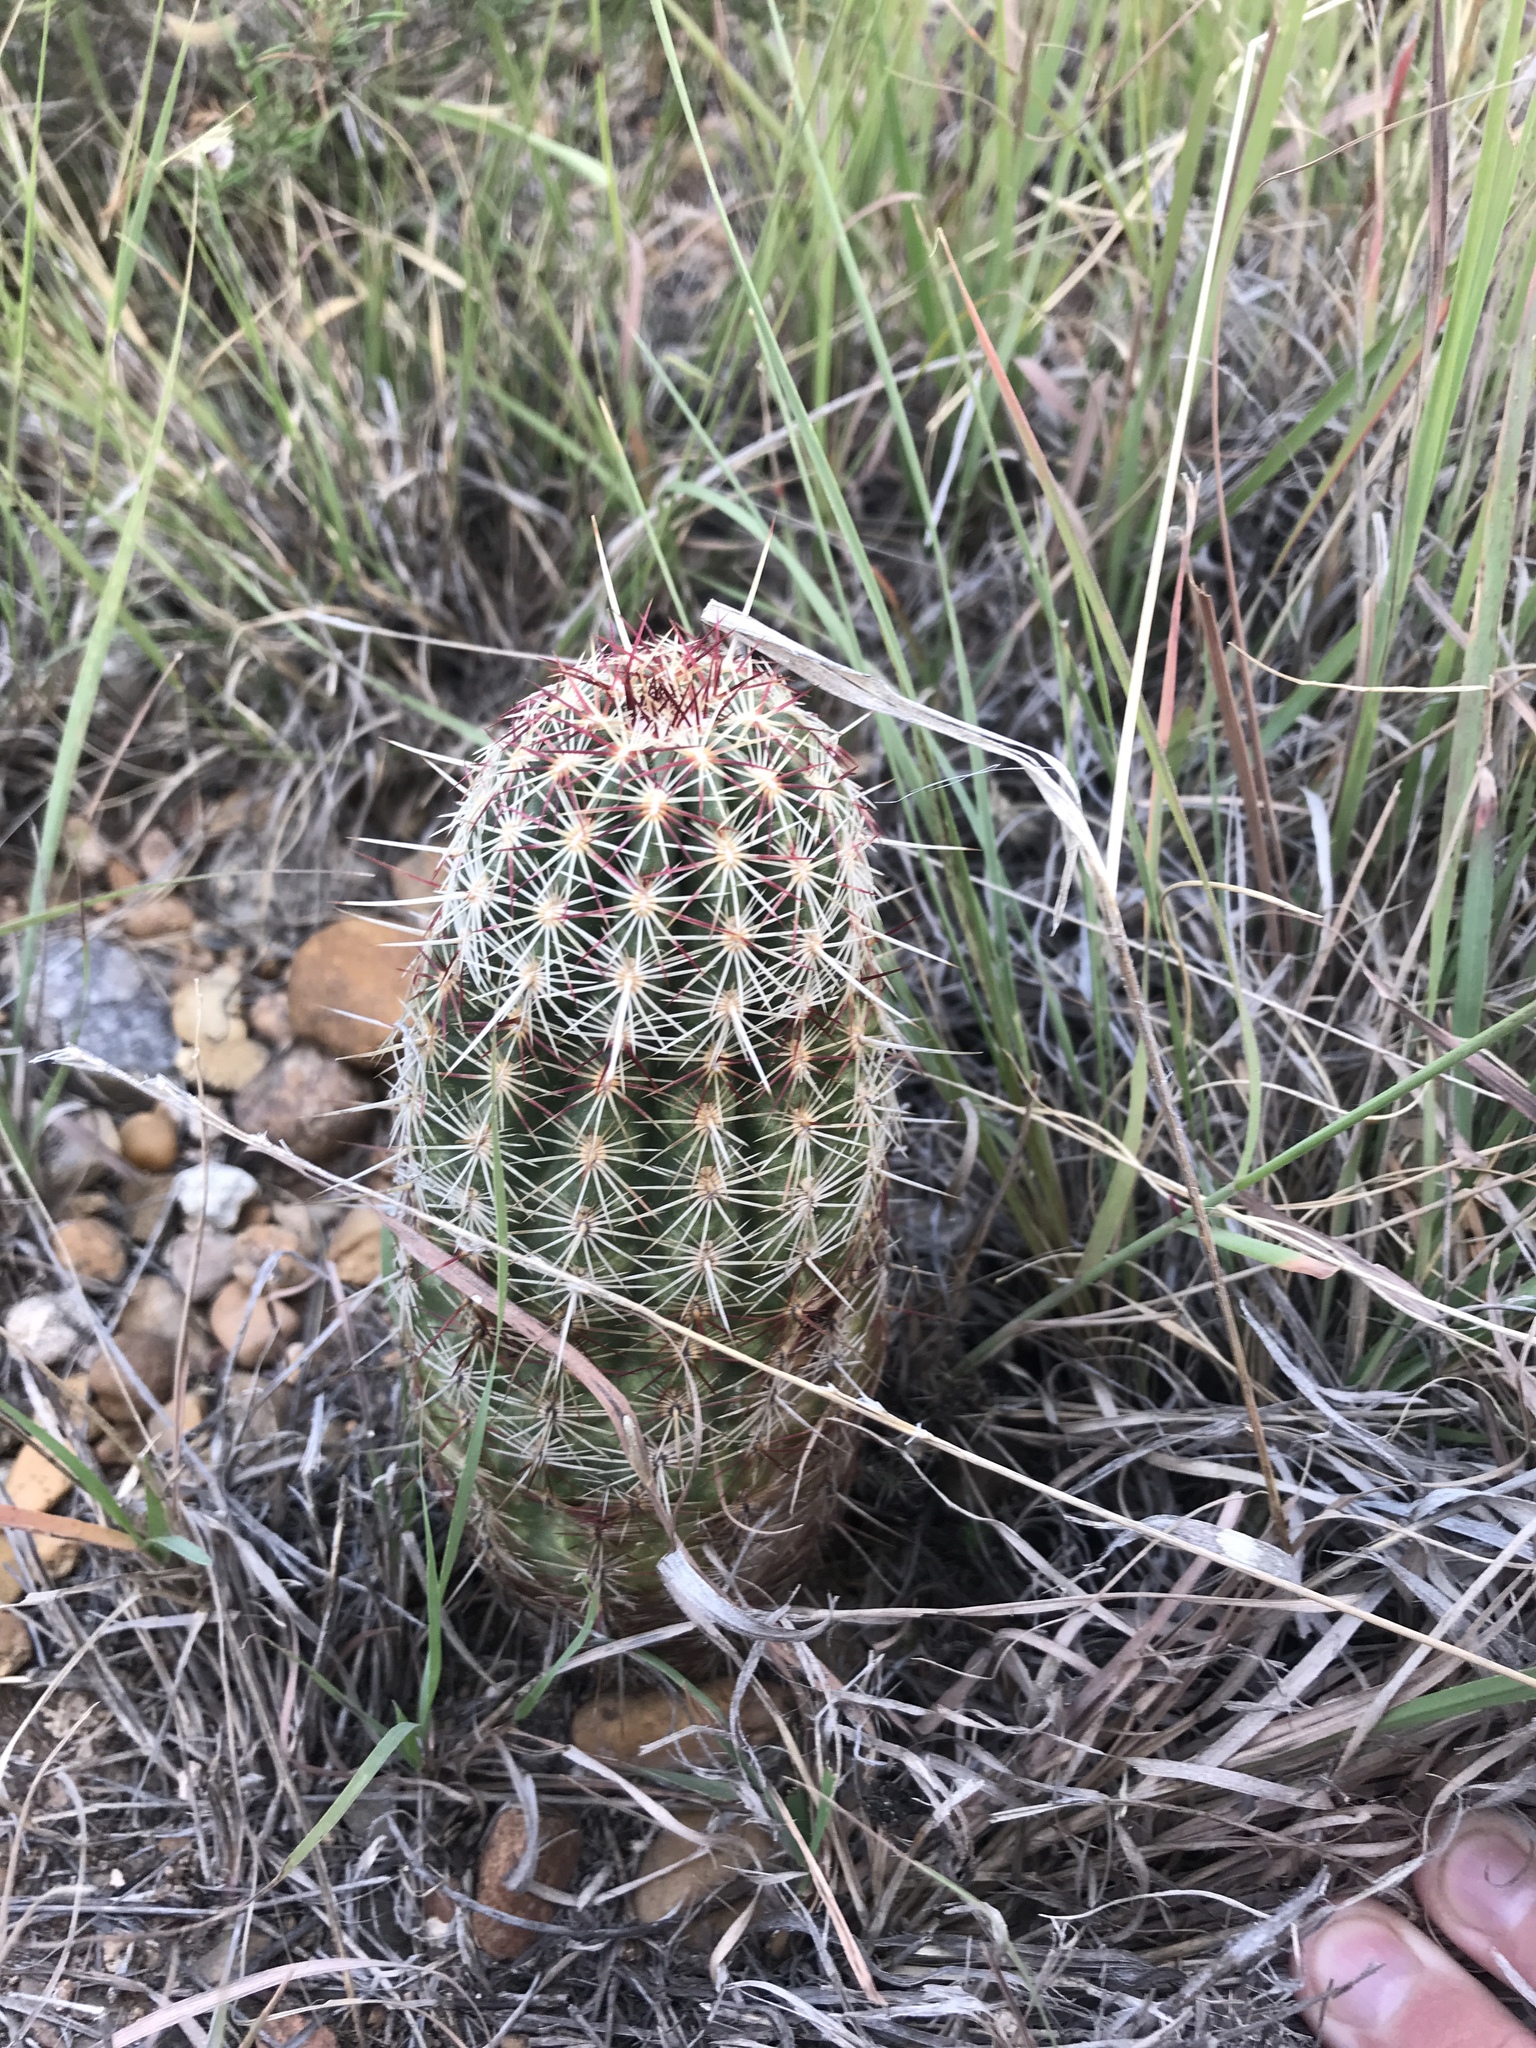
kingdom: Plantae
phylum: Tracheophyta
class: Magnoliopsida
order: Caryophyllales
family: Cactaceae
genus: Echinocereus
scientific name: Echinocereus viridiflorus
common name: Nylon hedgehog cactus
